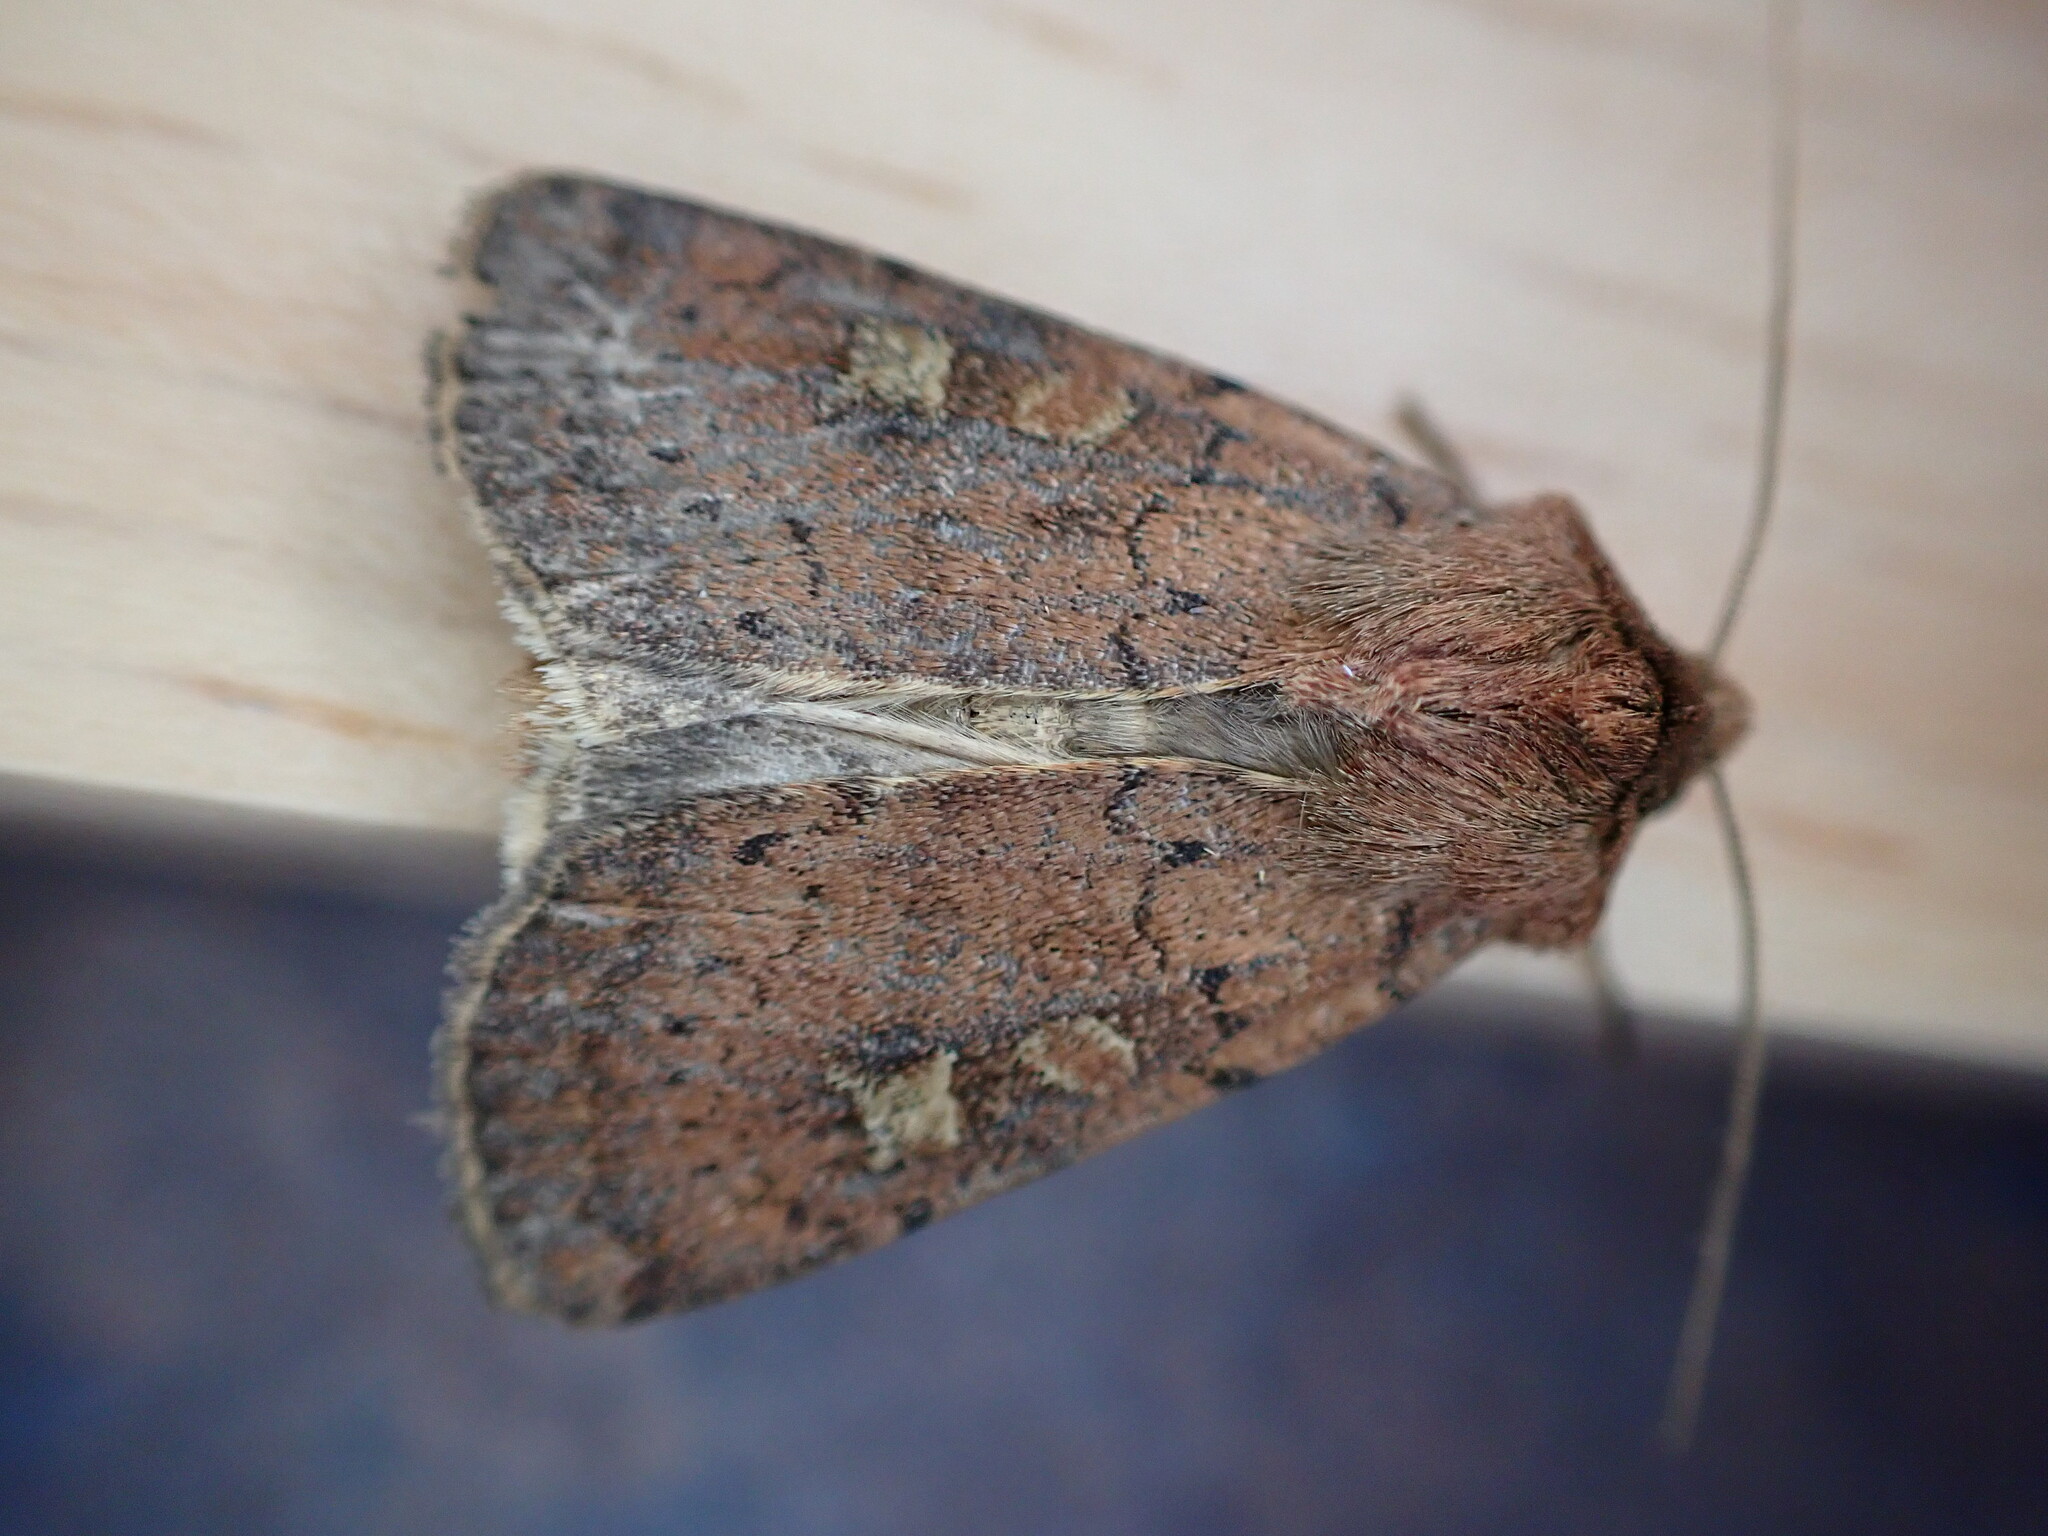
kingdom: Animalia
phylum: Arthropoda
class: Insecta
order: Lepidoptera
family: Noctuidae
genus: Xestia
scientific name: Xestia xanthographa
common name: Square-spot rustic
